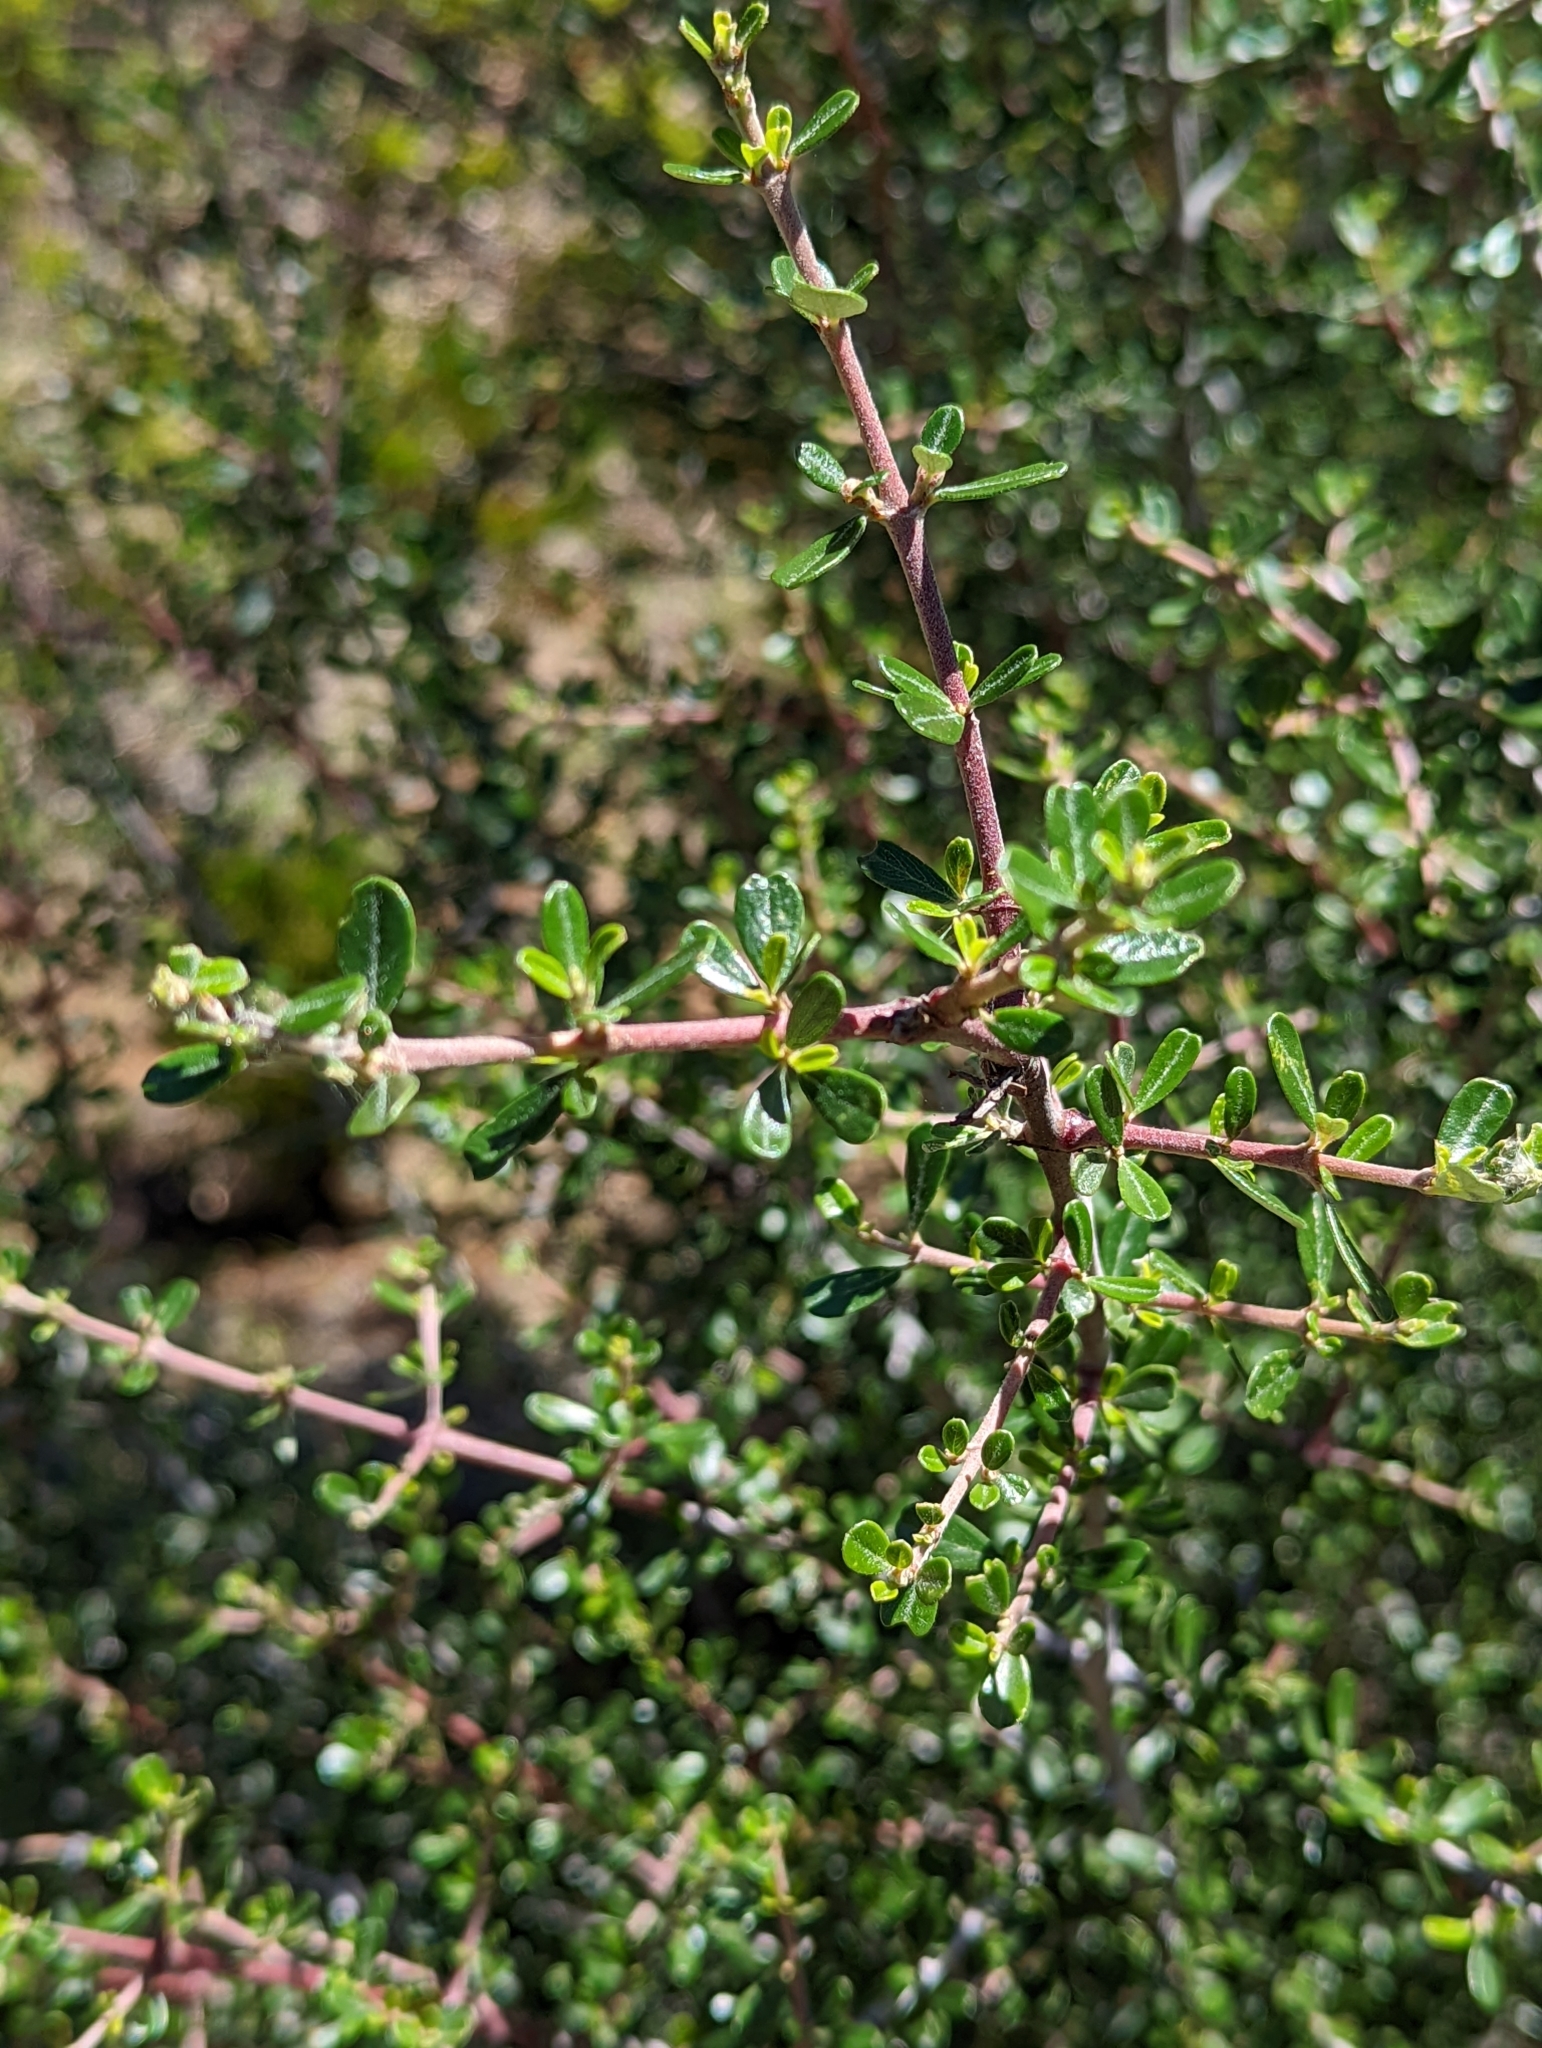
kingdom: Plantae
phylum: Tracheophyta
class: Magnoliopsida
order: Rosales
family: Rhamnaceae
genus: Ceanothus
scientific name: Ceanothus cuneatus
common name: Cuneate ceanothus
